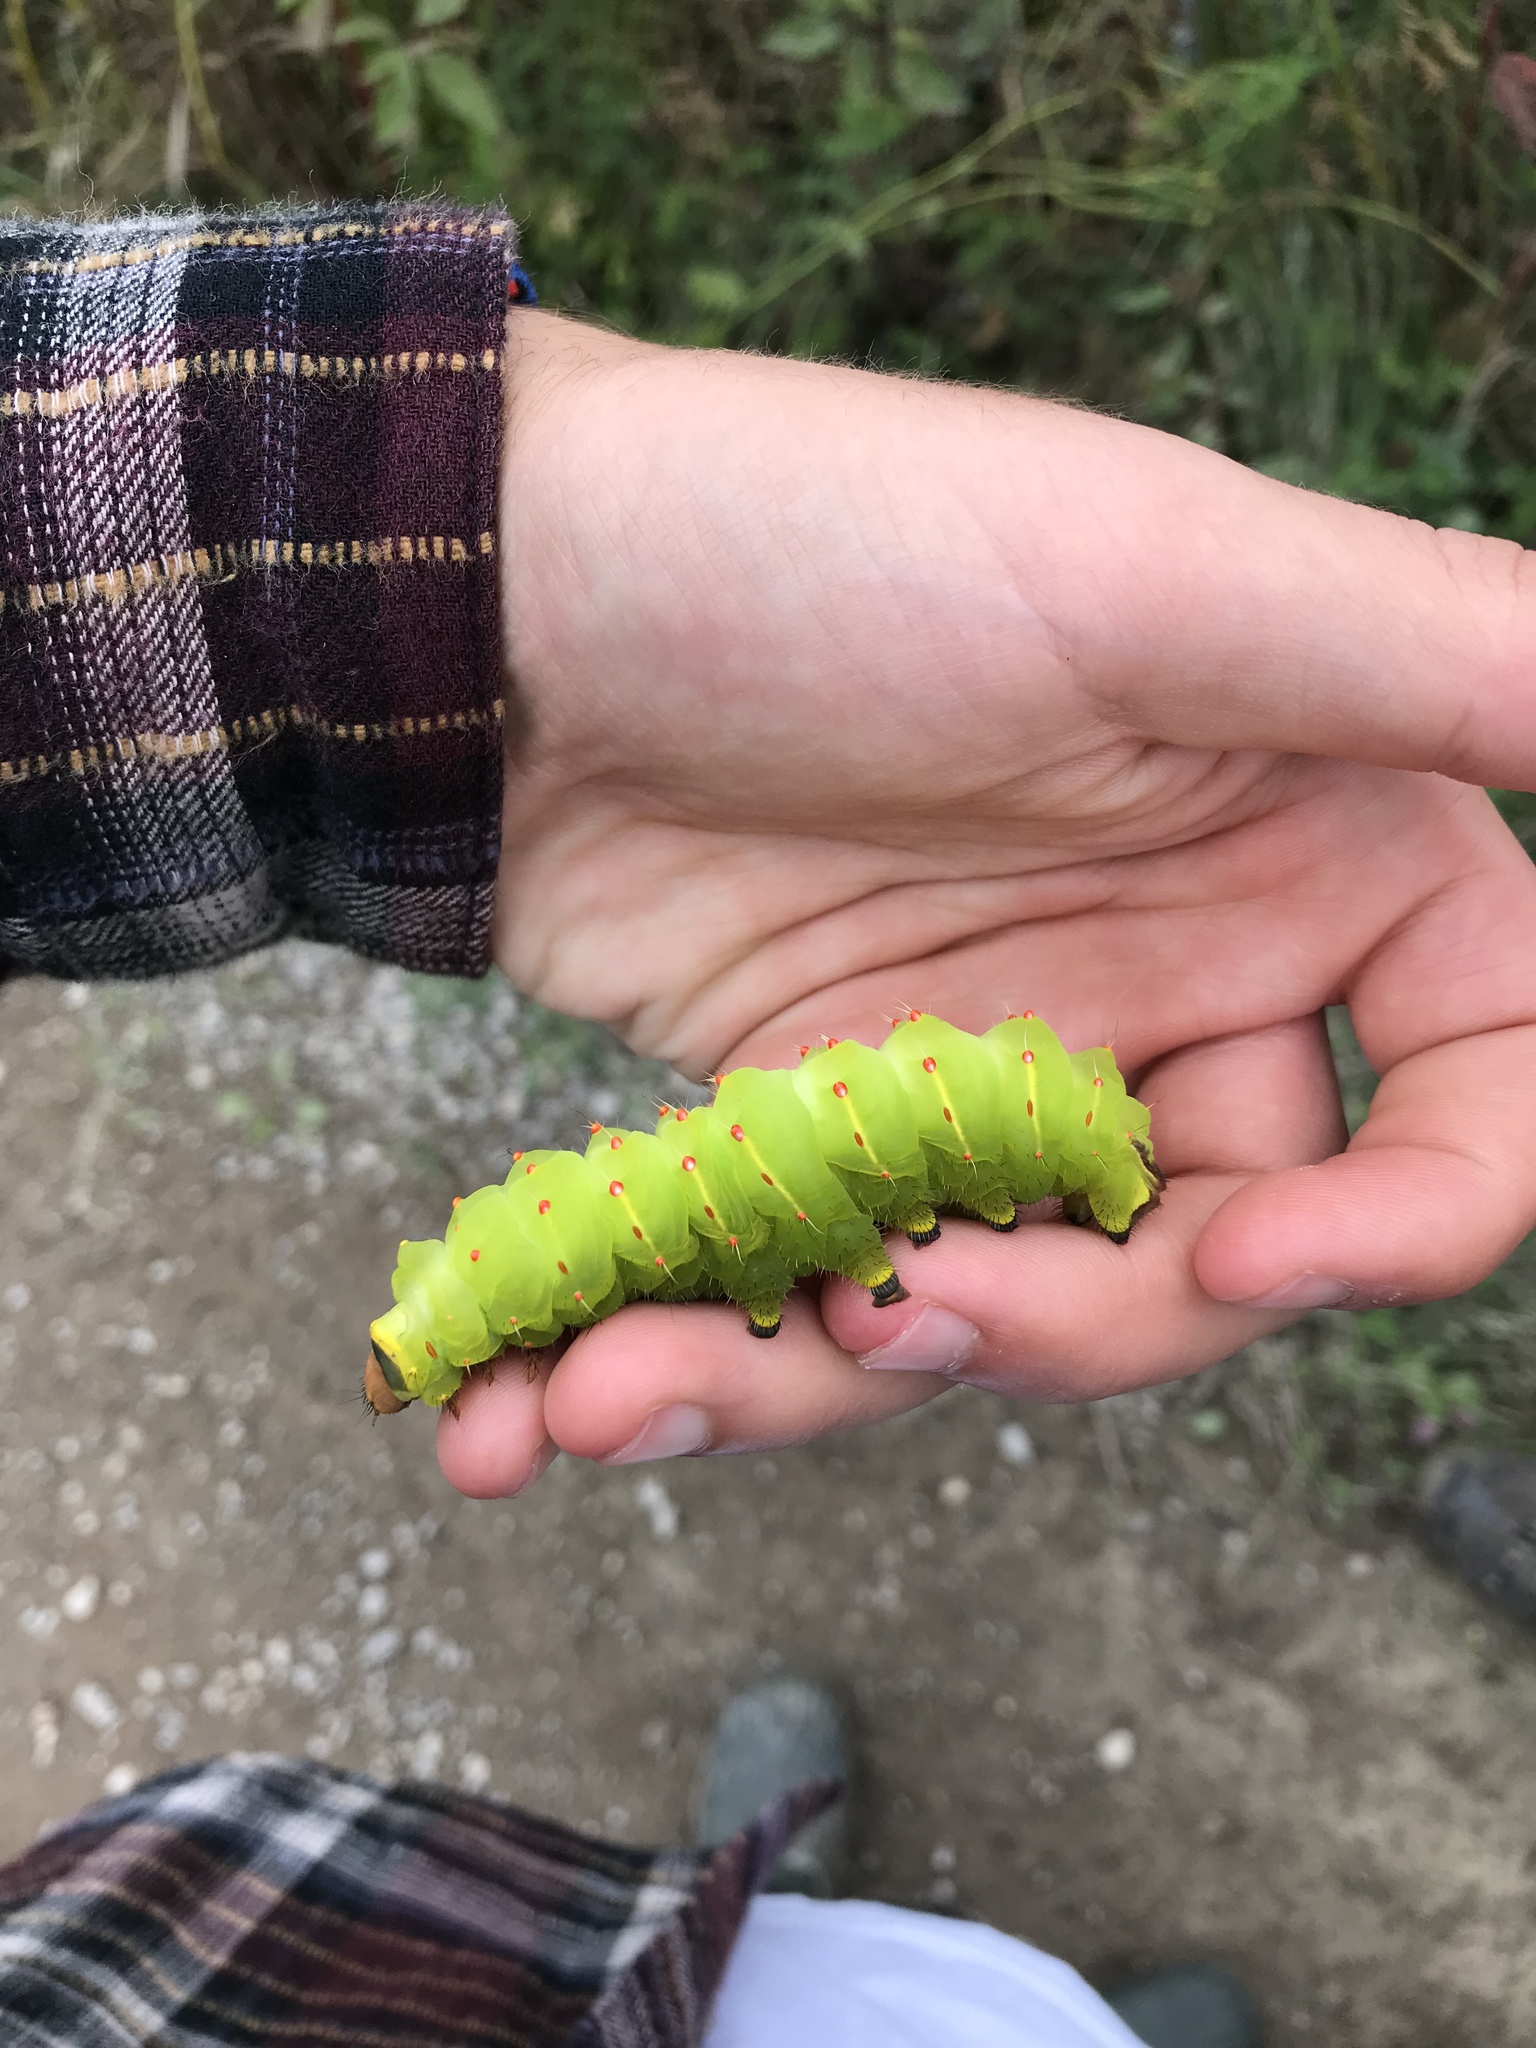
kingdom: Animalia
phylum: Arthropoda
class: Insecta
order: Lepidoptera
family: Saturniidae
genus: Antheraea
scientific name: Antheraea polyphemus
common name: Polyphemus moth
